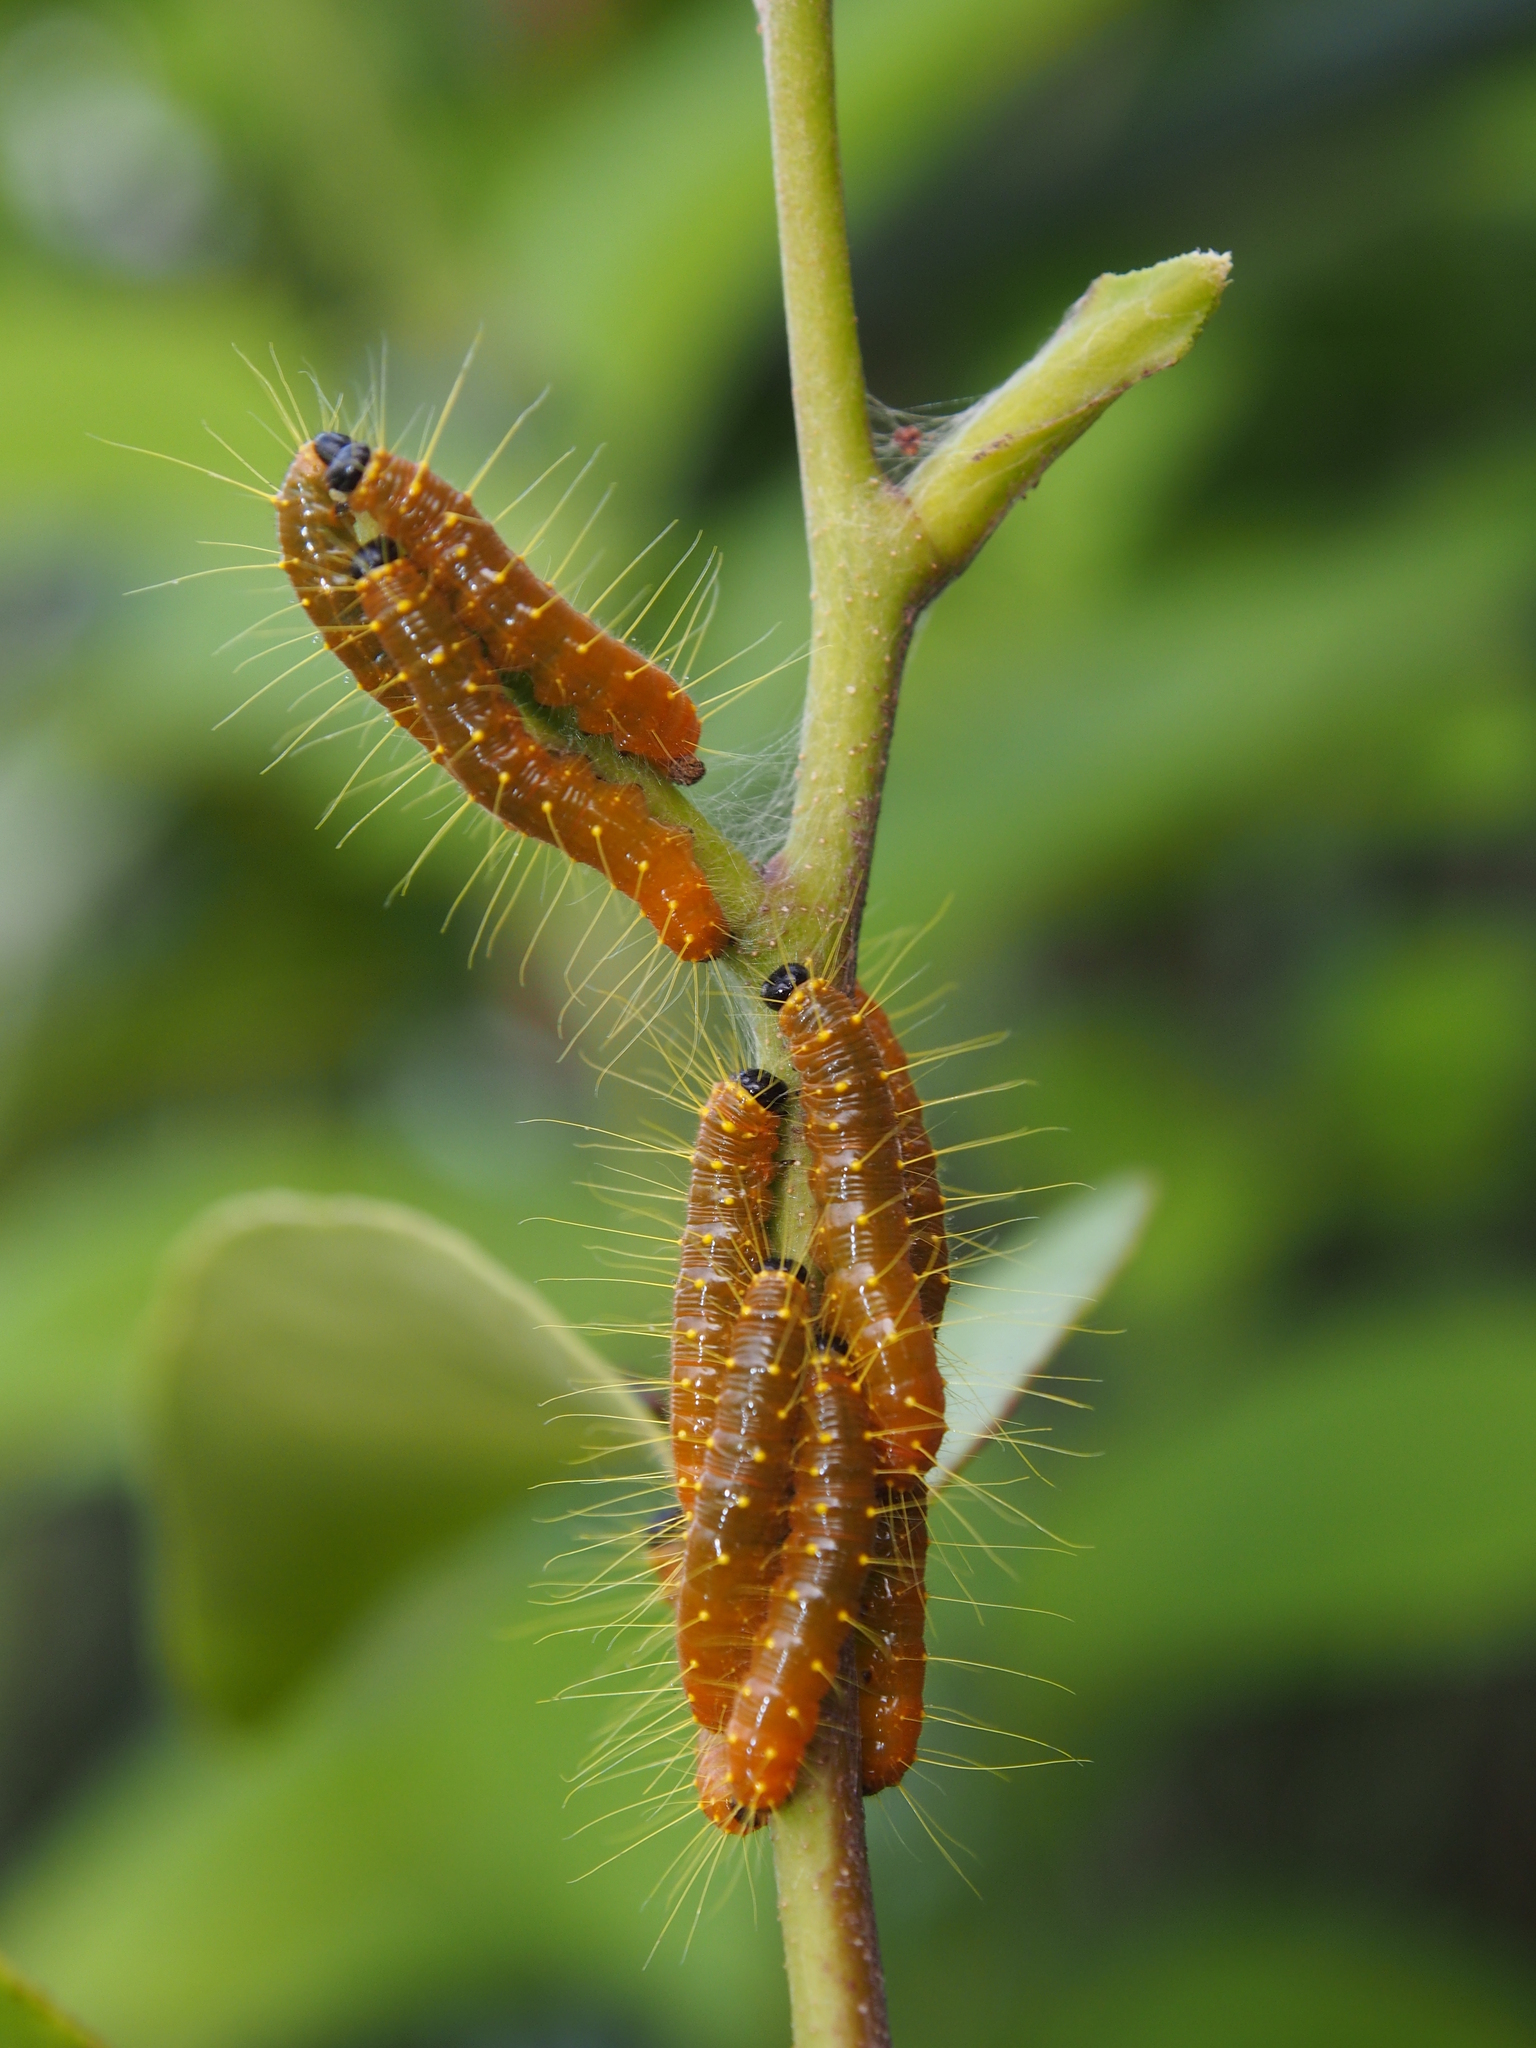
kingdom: Animalia
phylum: Arthropoda
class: Insecta
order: Lepidoptera
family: Pieridae
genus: Delias
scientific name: Delias hyparete
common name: Painted jezebel
